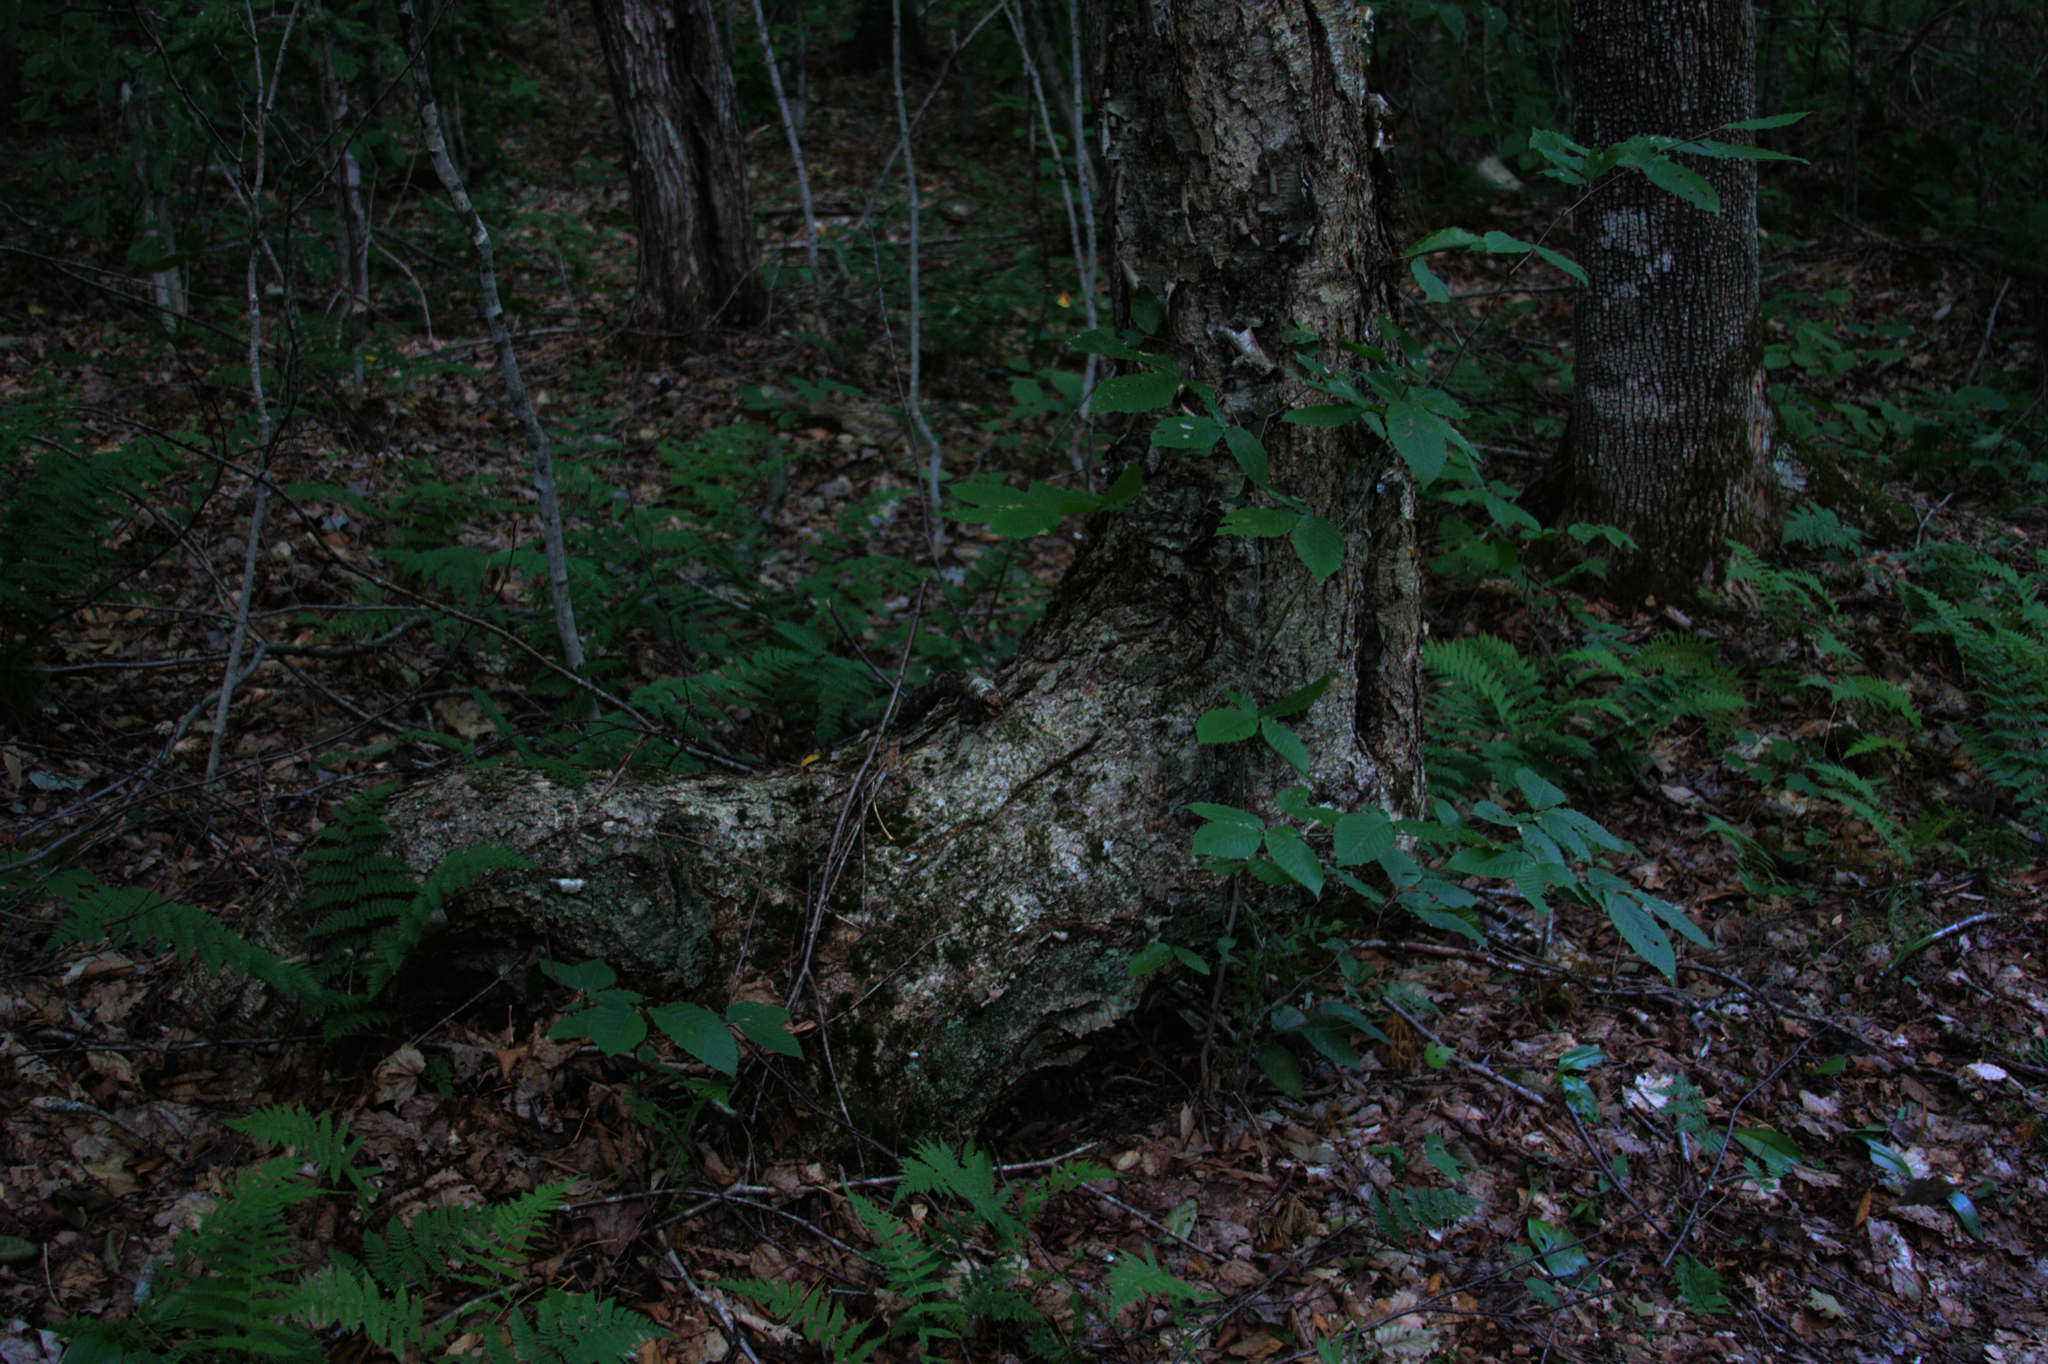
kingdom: Plantae
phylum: Tracheophyta
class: Magnoliopsida
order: Fagales
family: Betulaceae
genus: Betula
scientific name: Betula alleghaniensis
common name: Yellow birch
